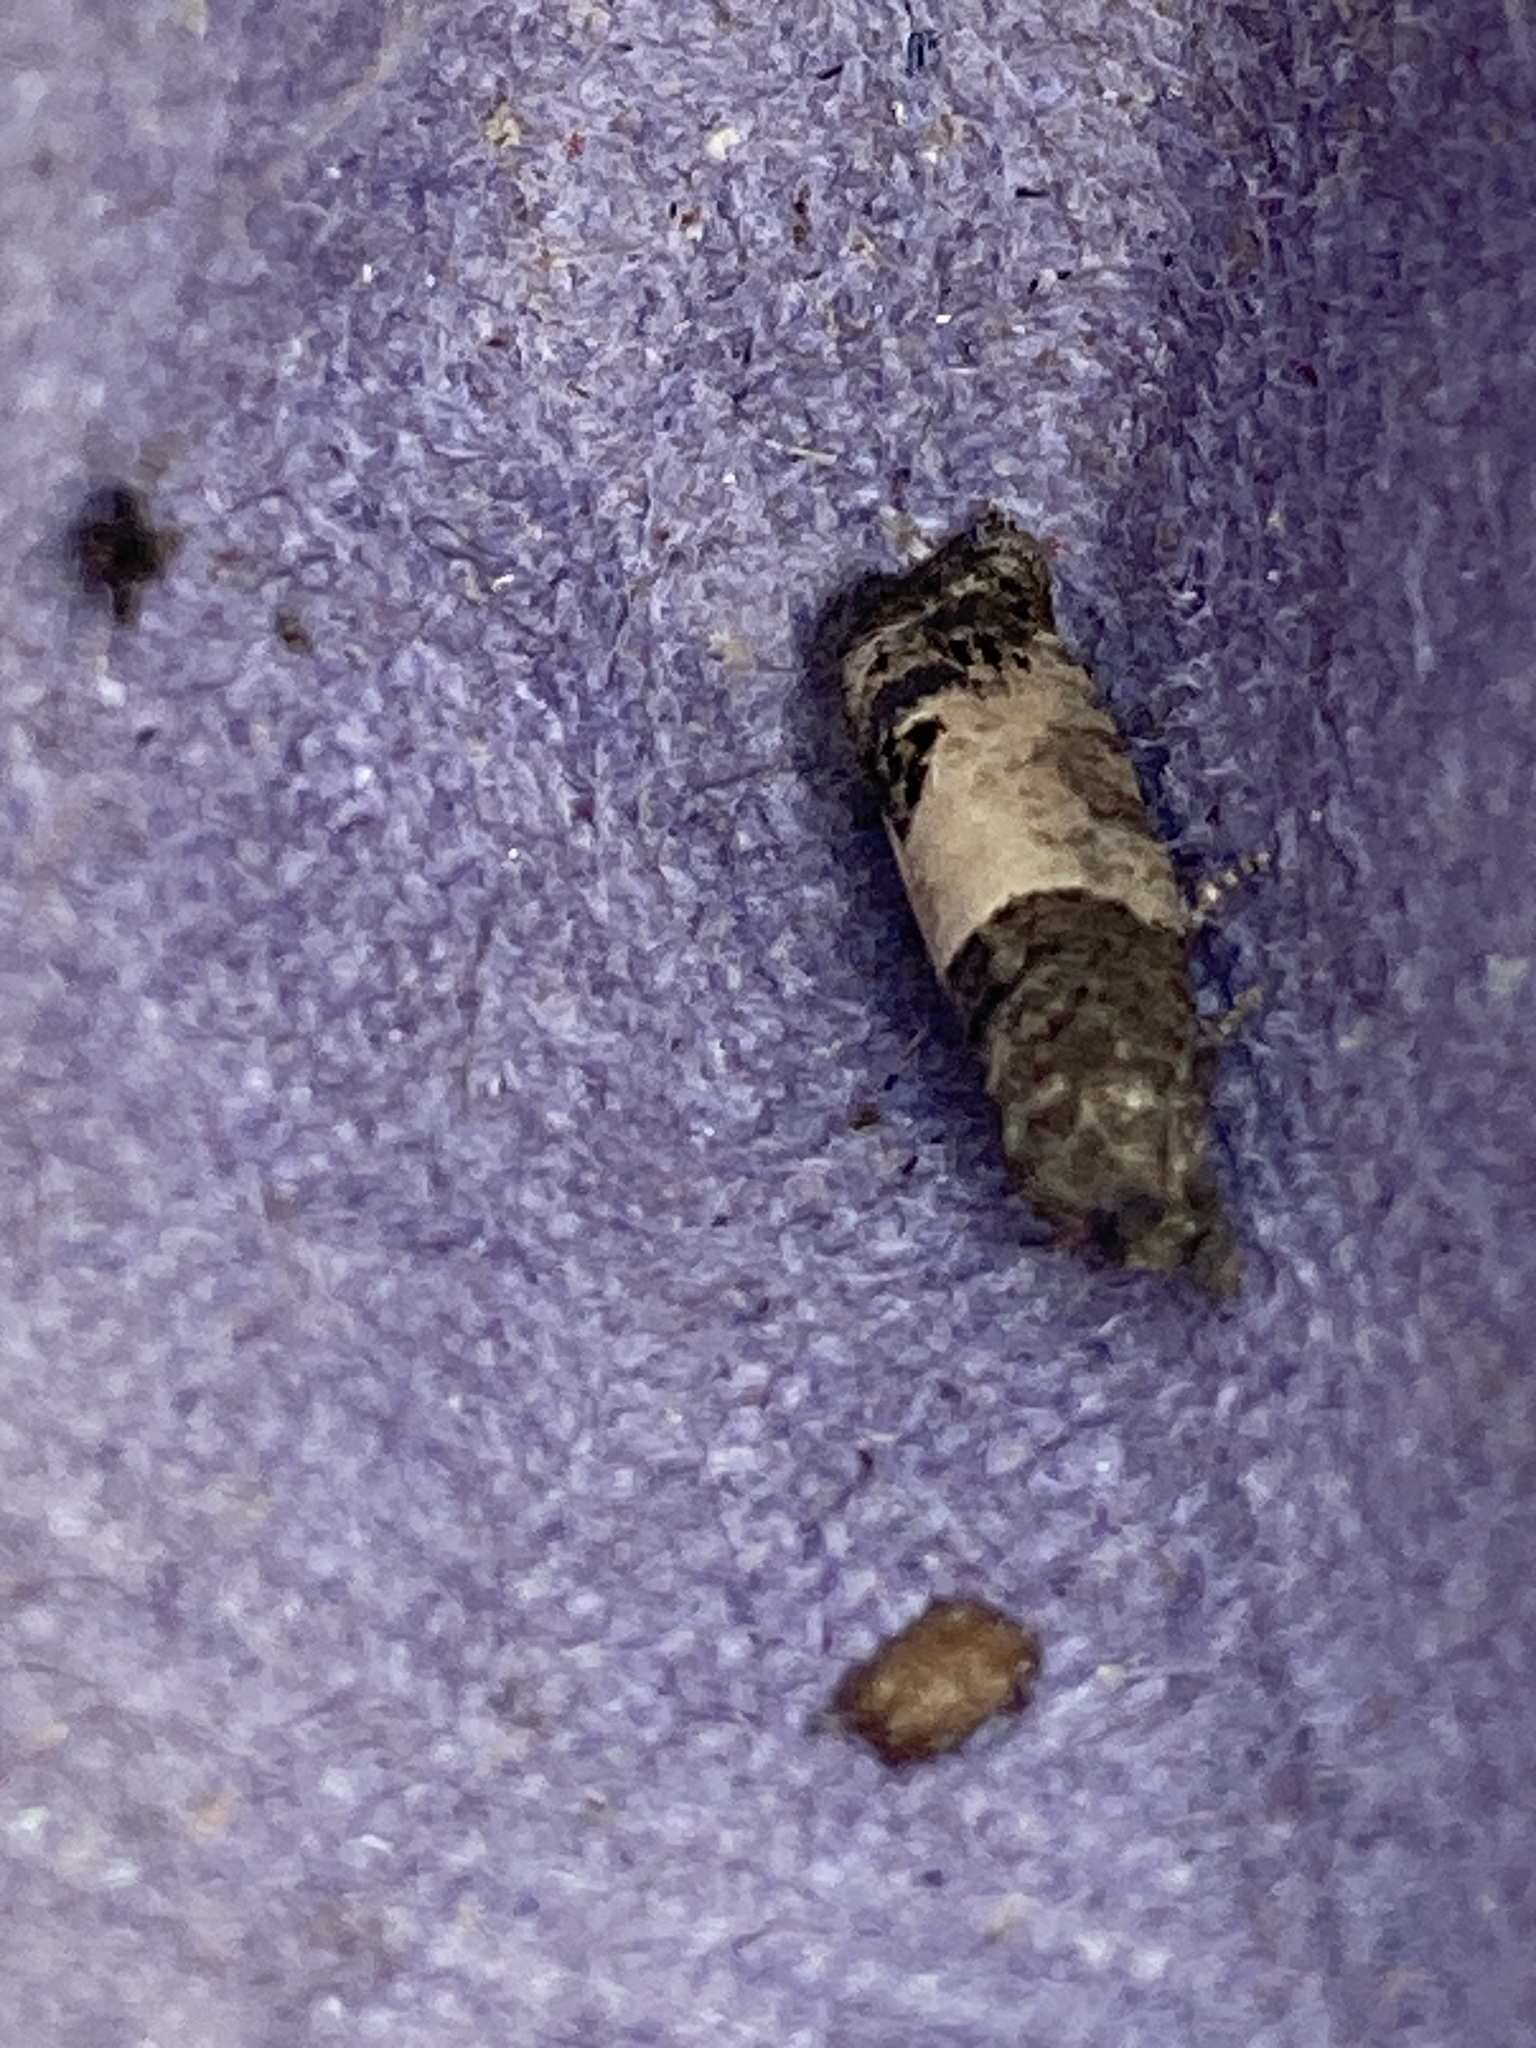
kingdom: Animalia
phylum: Arthropoda
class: Insecta
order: Lepidoptera
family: Tortricidae
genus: Spilonota
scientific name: Spilonota ocellana
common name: Bud moth
